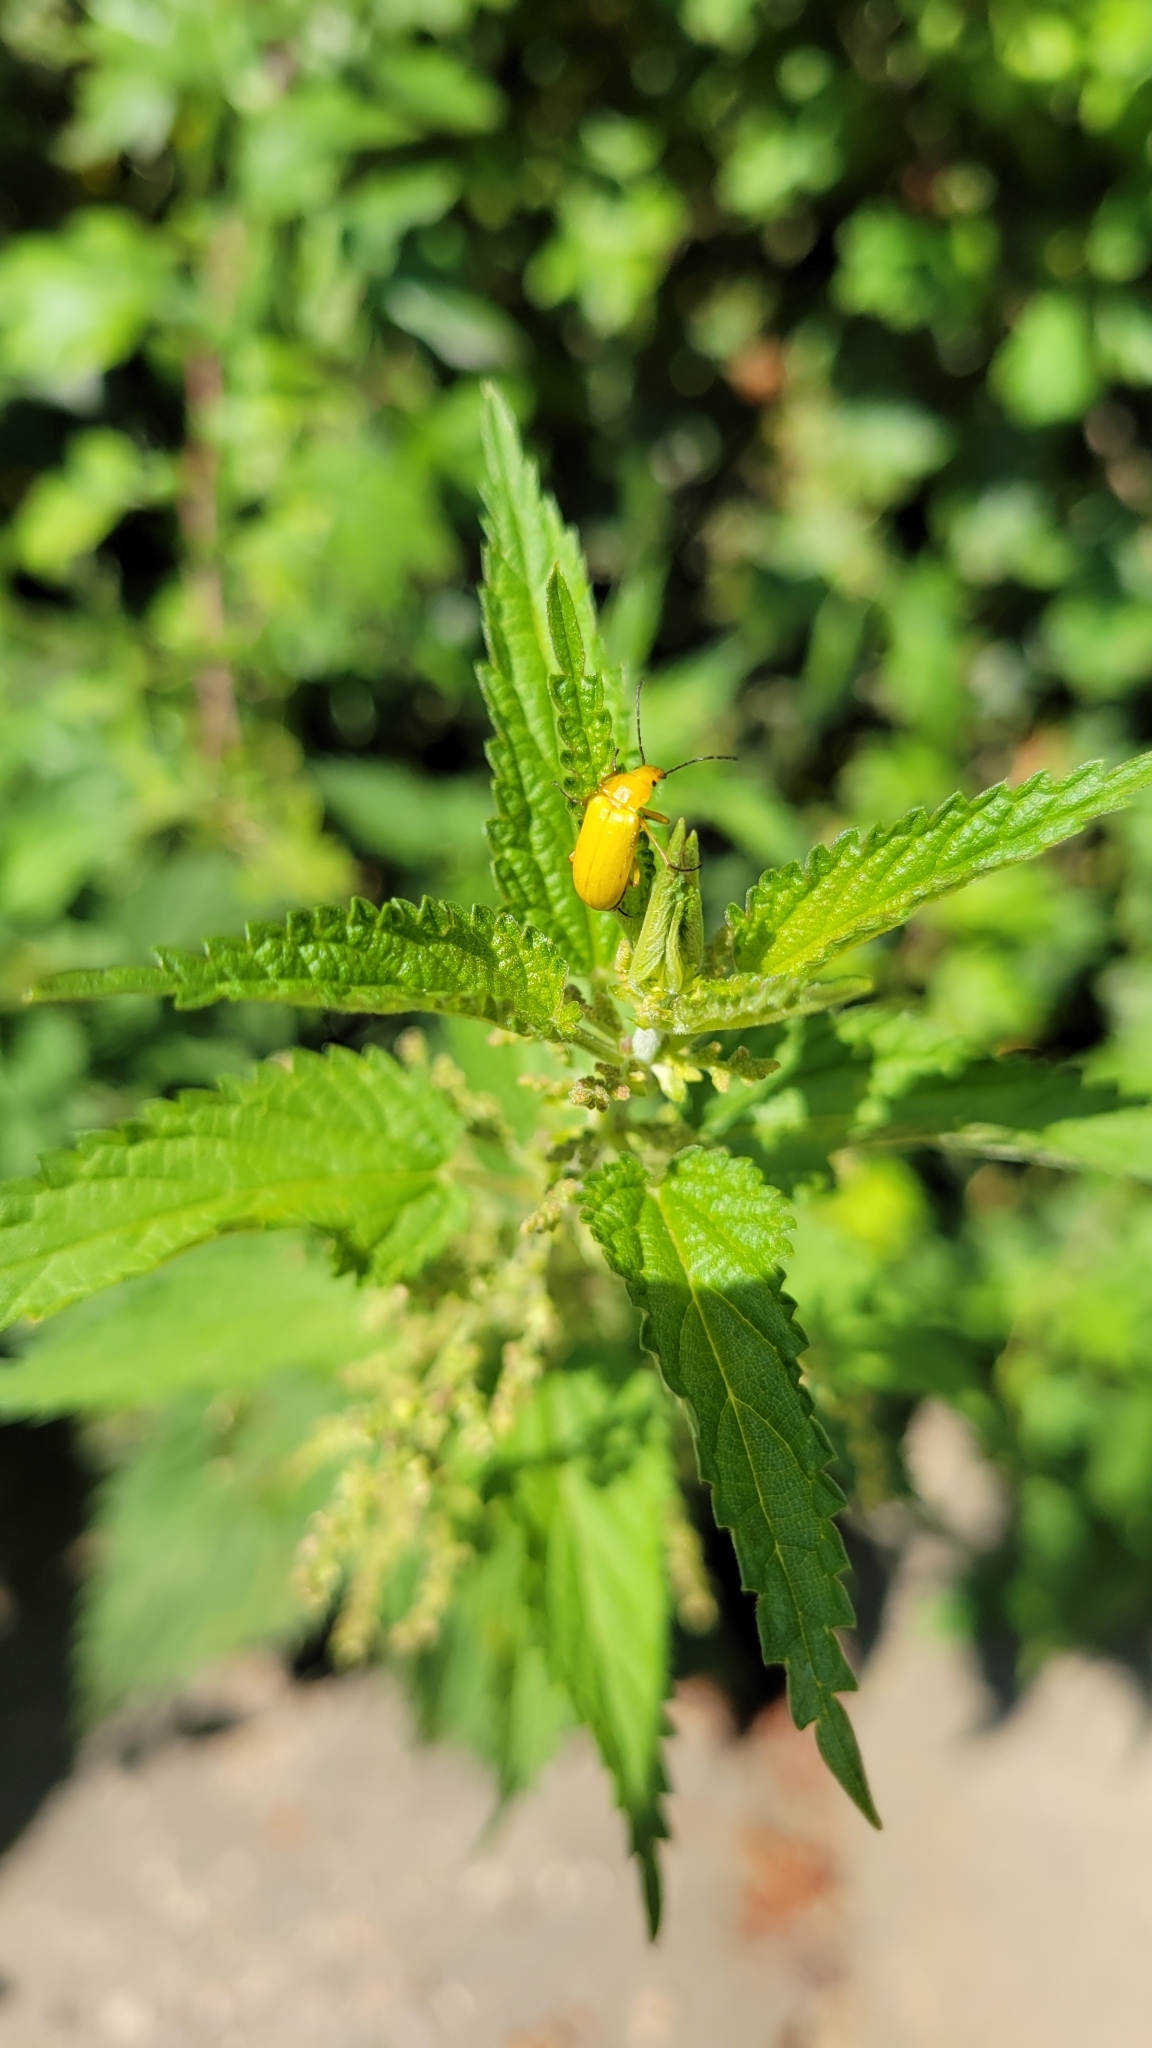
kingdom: Animalia
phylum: Arthropoda
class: Insecta
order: Coleoptera
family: Tenebrionidae
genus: Cteniopus
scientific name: Cteniopus sulphureus
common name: Sulphur beetle
